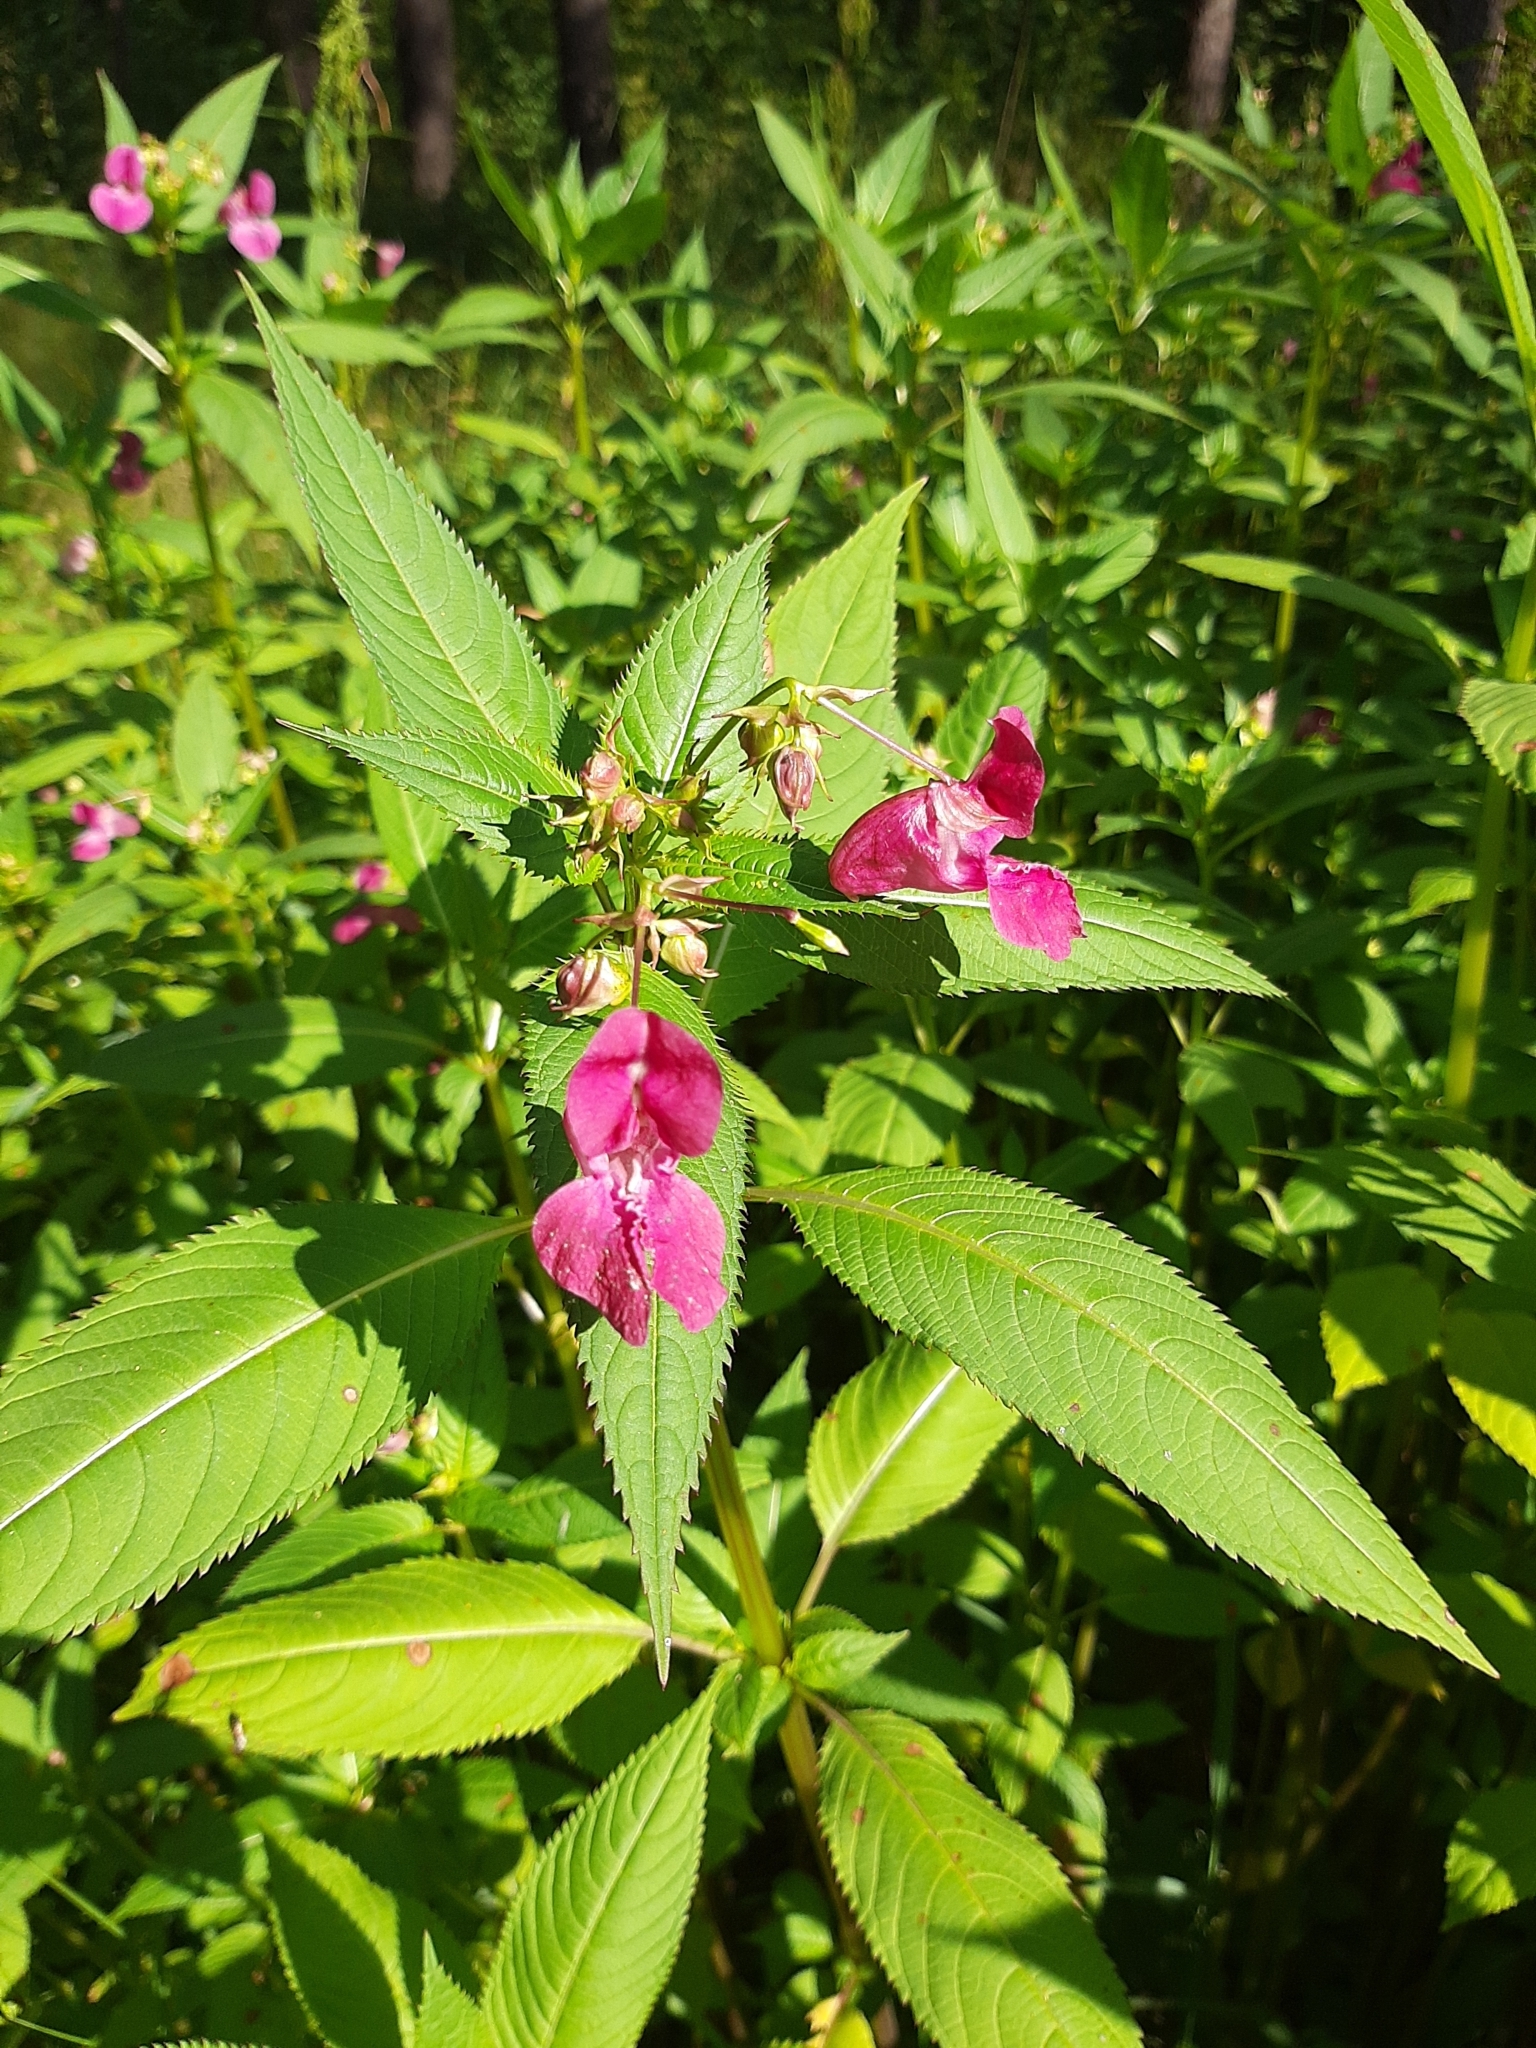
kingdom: Plantae
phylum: Tracheophyta
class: Magnoliopsida
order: Ericales
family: Balsaminaceae
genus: Impatiens
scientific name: Impatiens glandulifera
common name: Himalayan balsam
